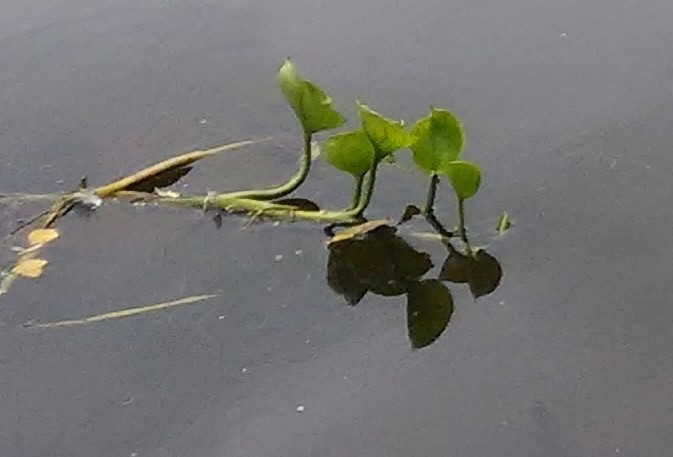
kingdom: Plantae
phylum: Tracheophyta
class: Liliopsida
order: Alismatales
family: Araceae
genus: Calla
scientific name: Calla palustris
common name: Bog arum
